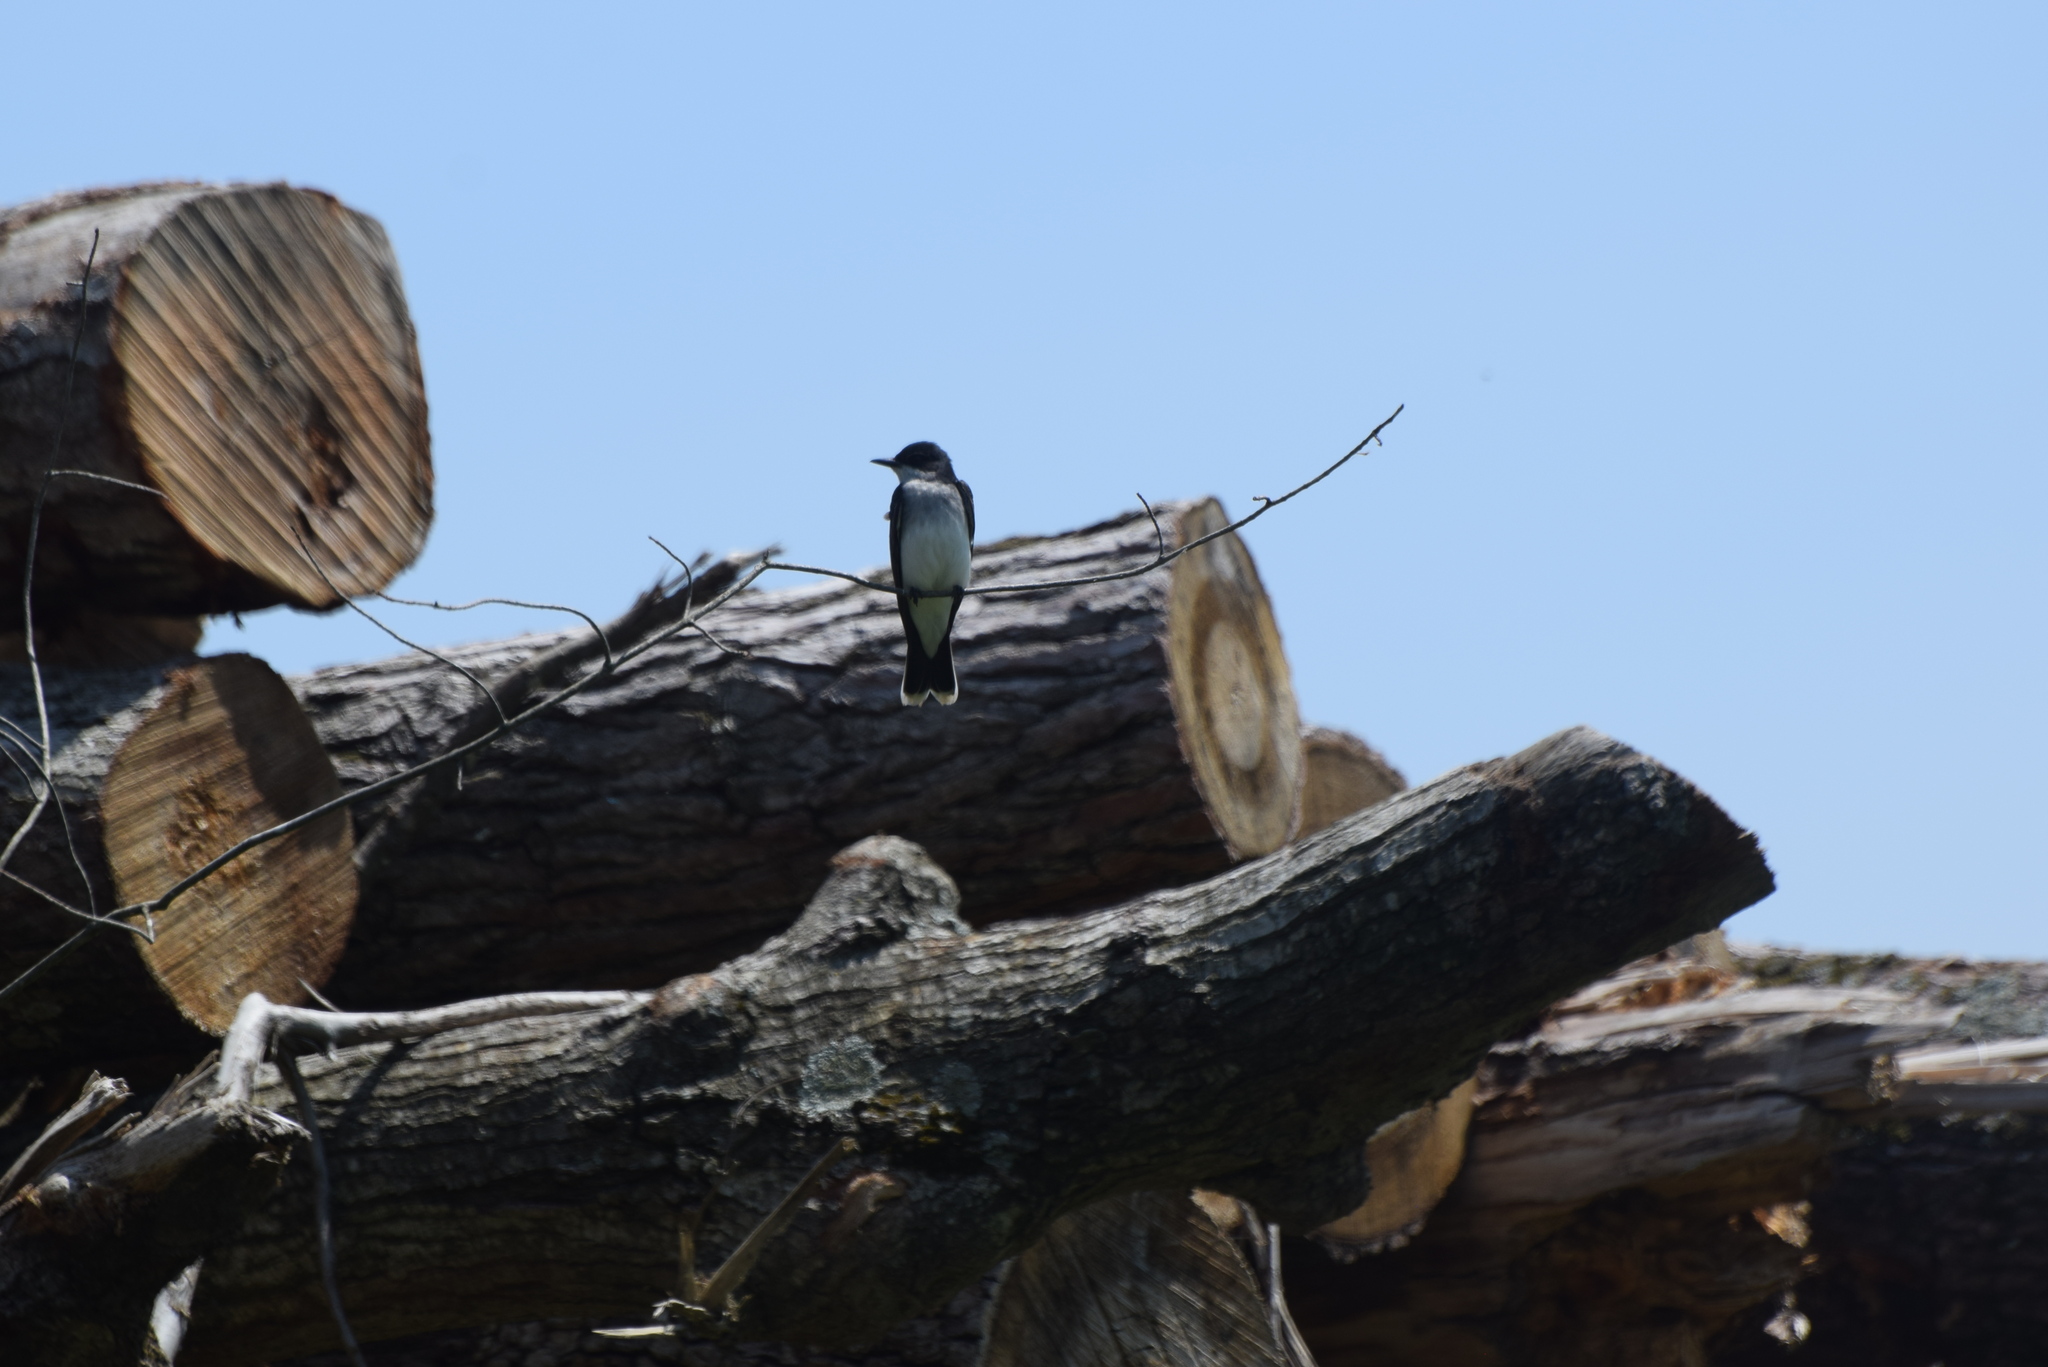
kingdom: Animalia
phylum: Chordata
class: Aves
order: Passeriformes
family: Tyrannidae
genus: Tyrannus
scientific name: Tyrannus tyrannus
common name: Eastern kingbird
